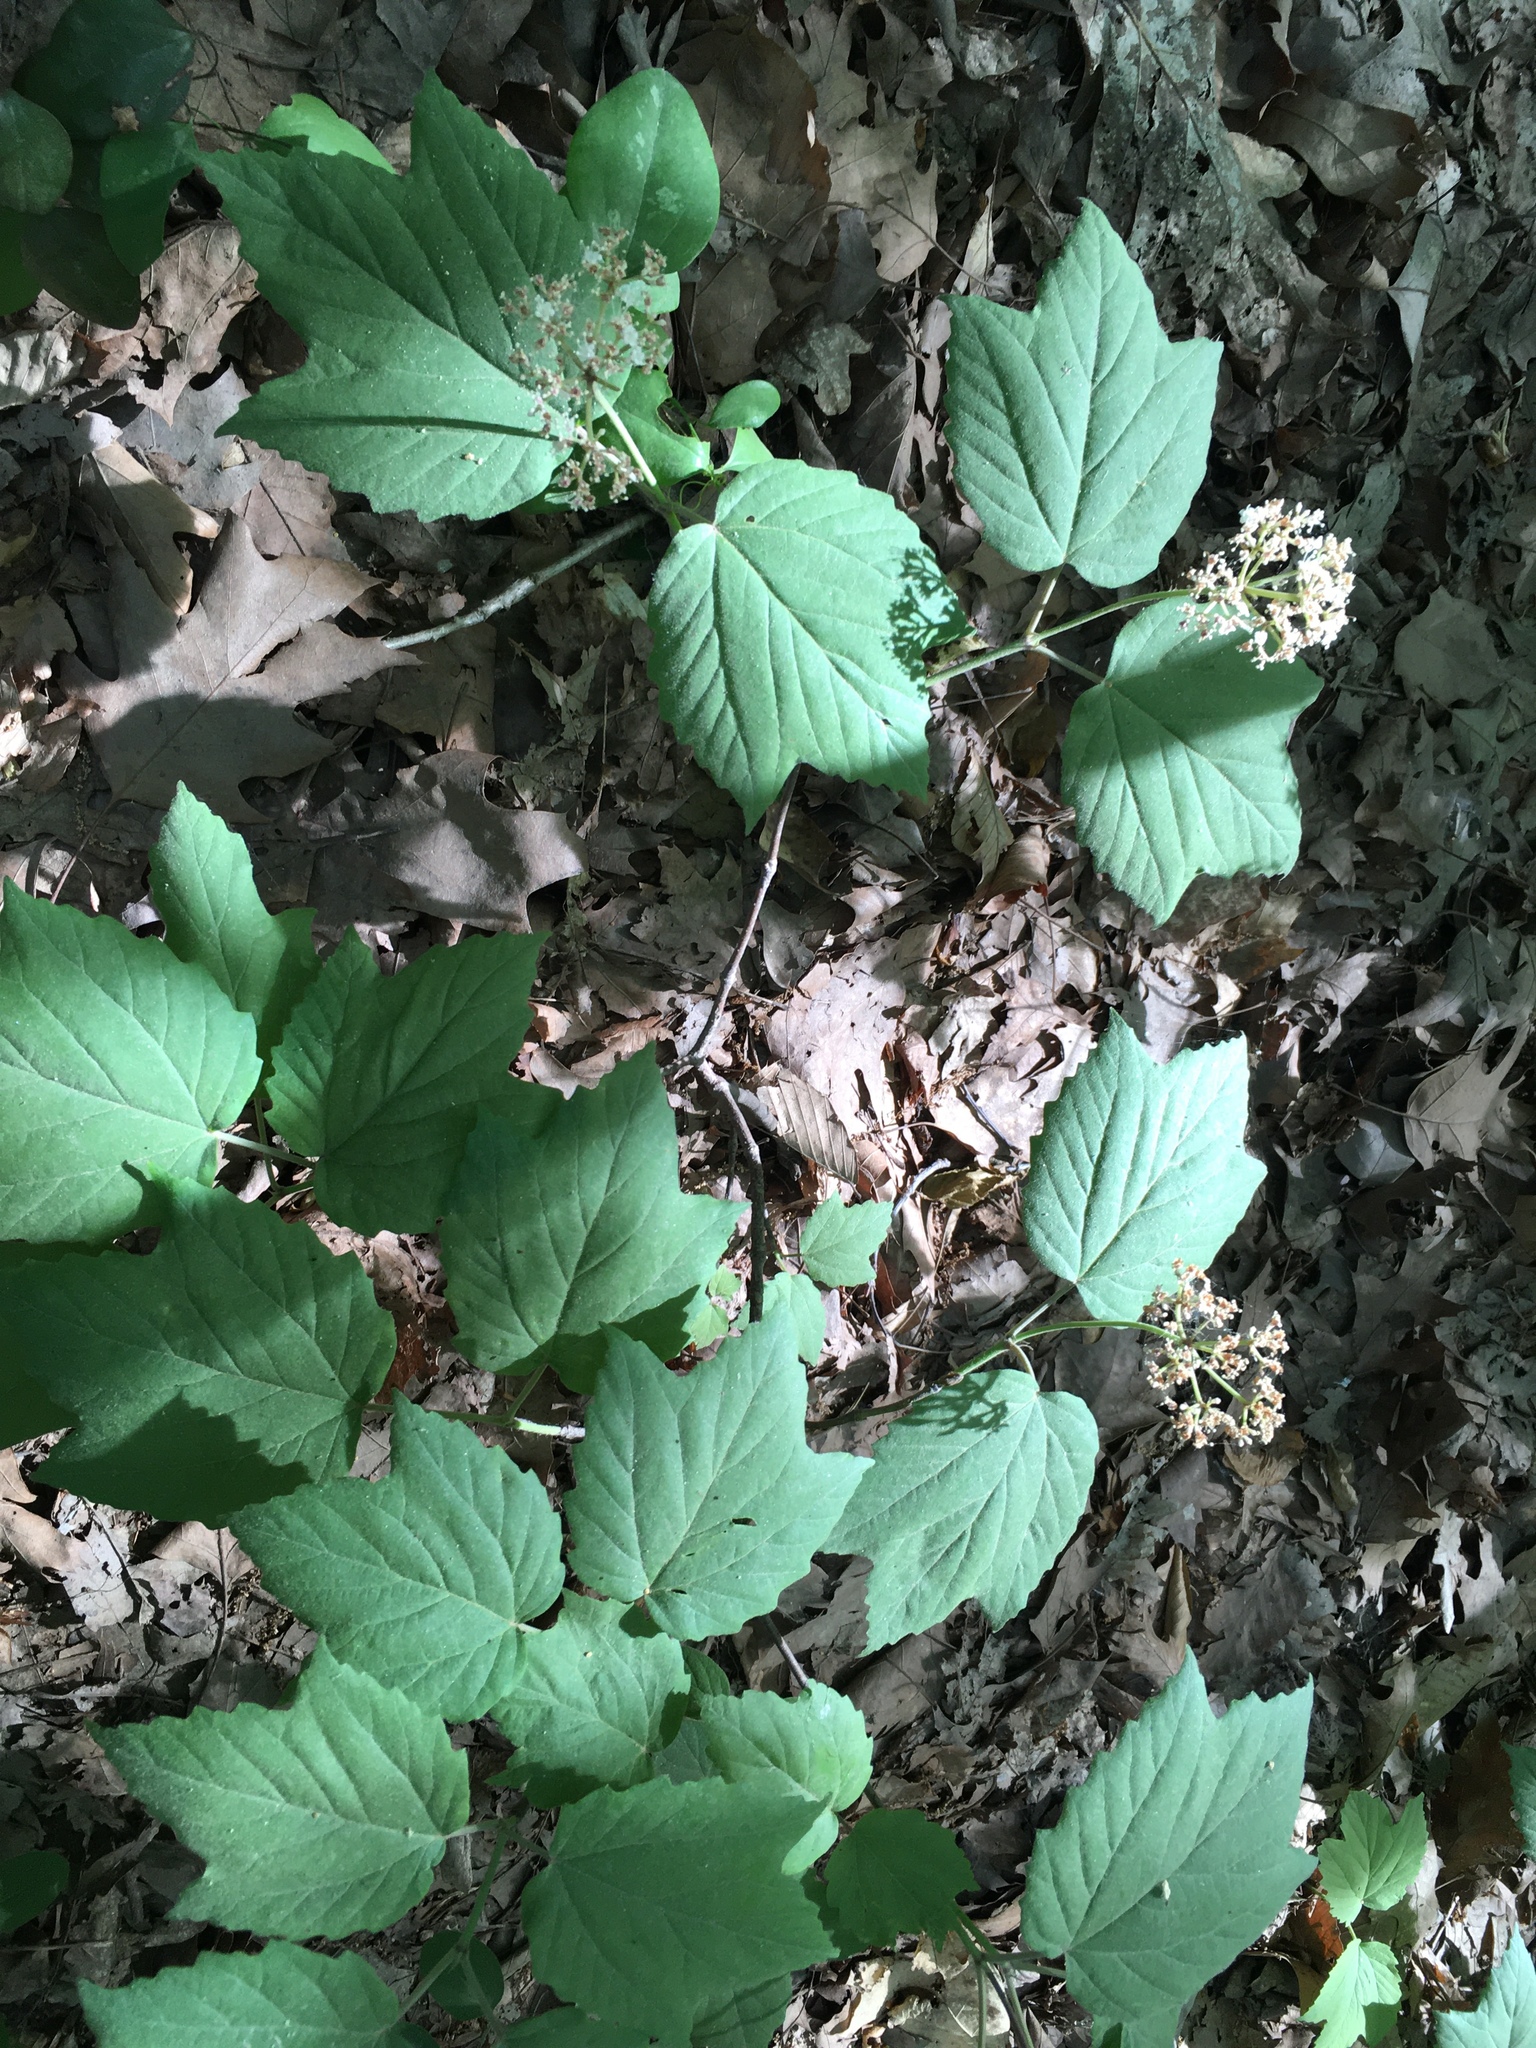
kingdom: Plantae
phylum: Tracheophyta
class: Magnoliopsida
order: Dipsacales
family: Viburnaceae
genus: Viburnum
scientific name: Viburnum acerifolium
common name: Dockmackie
